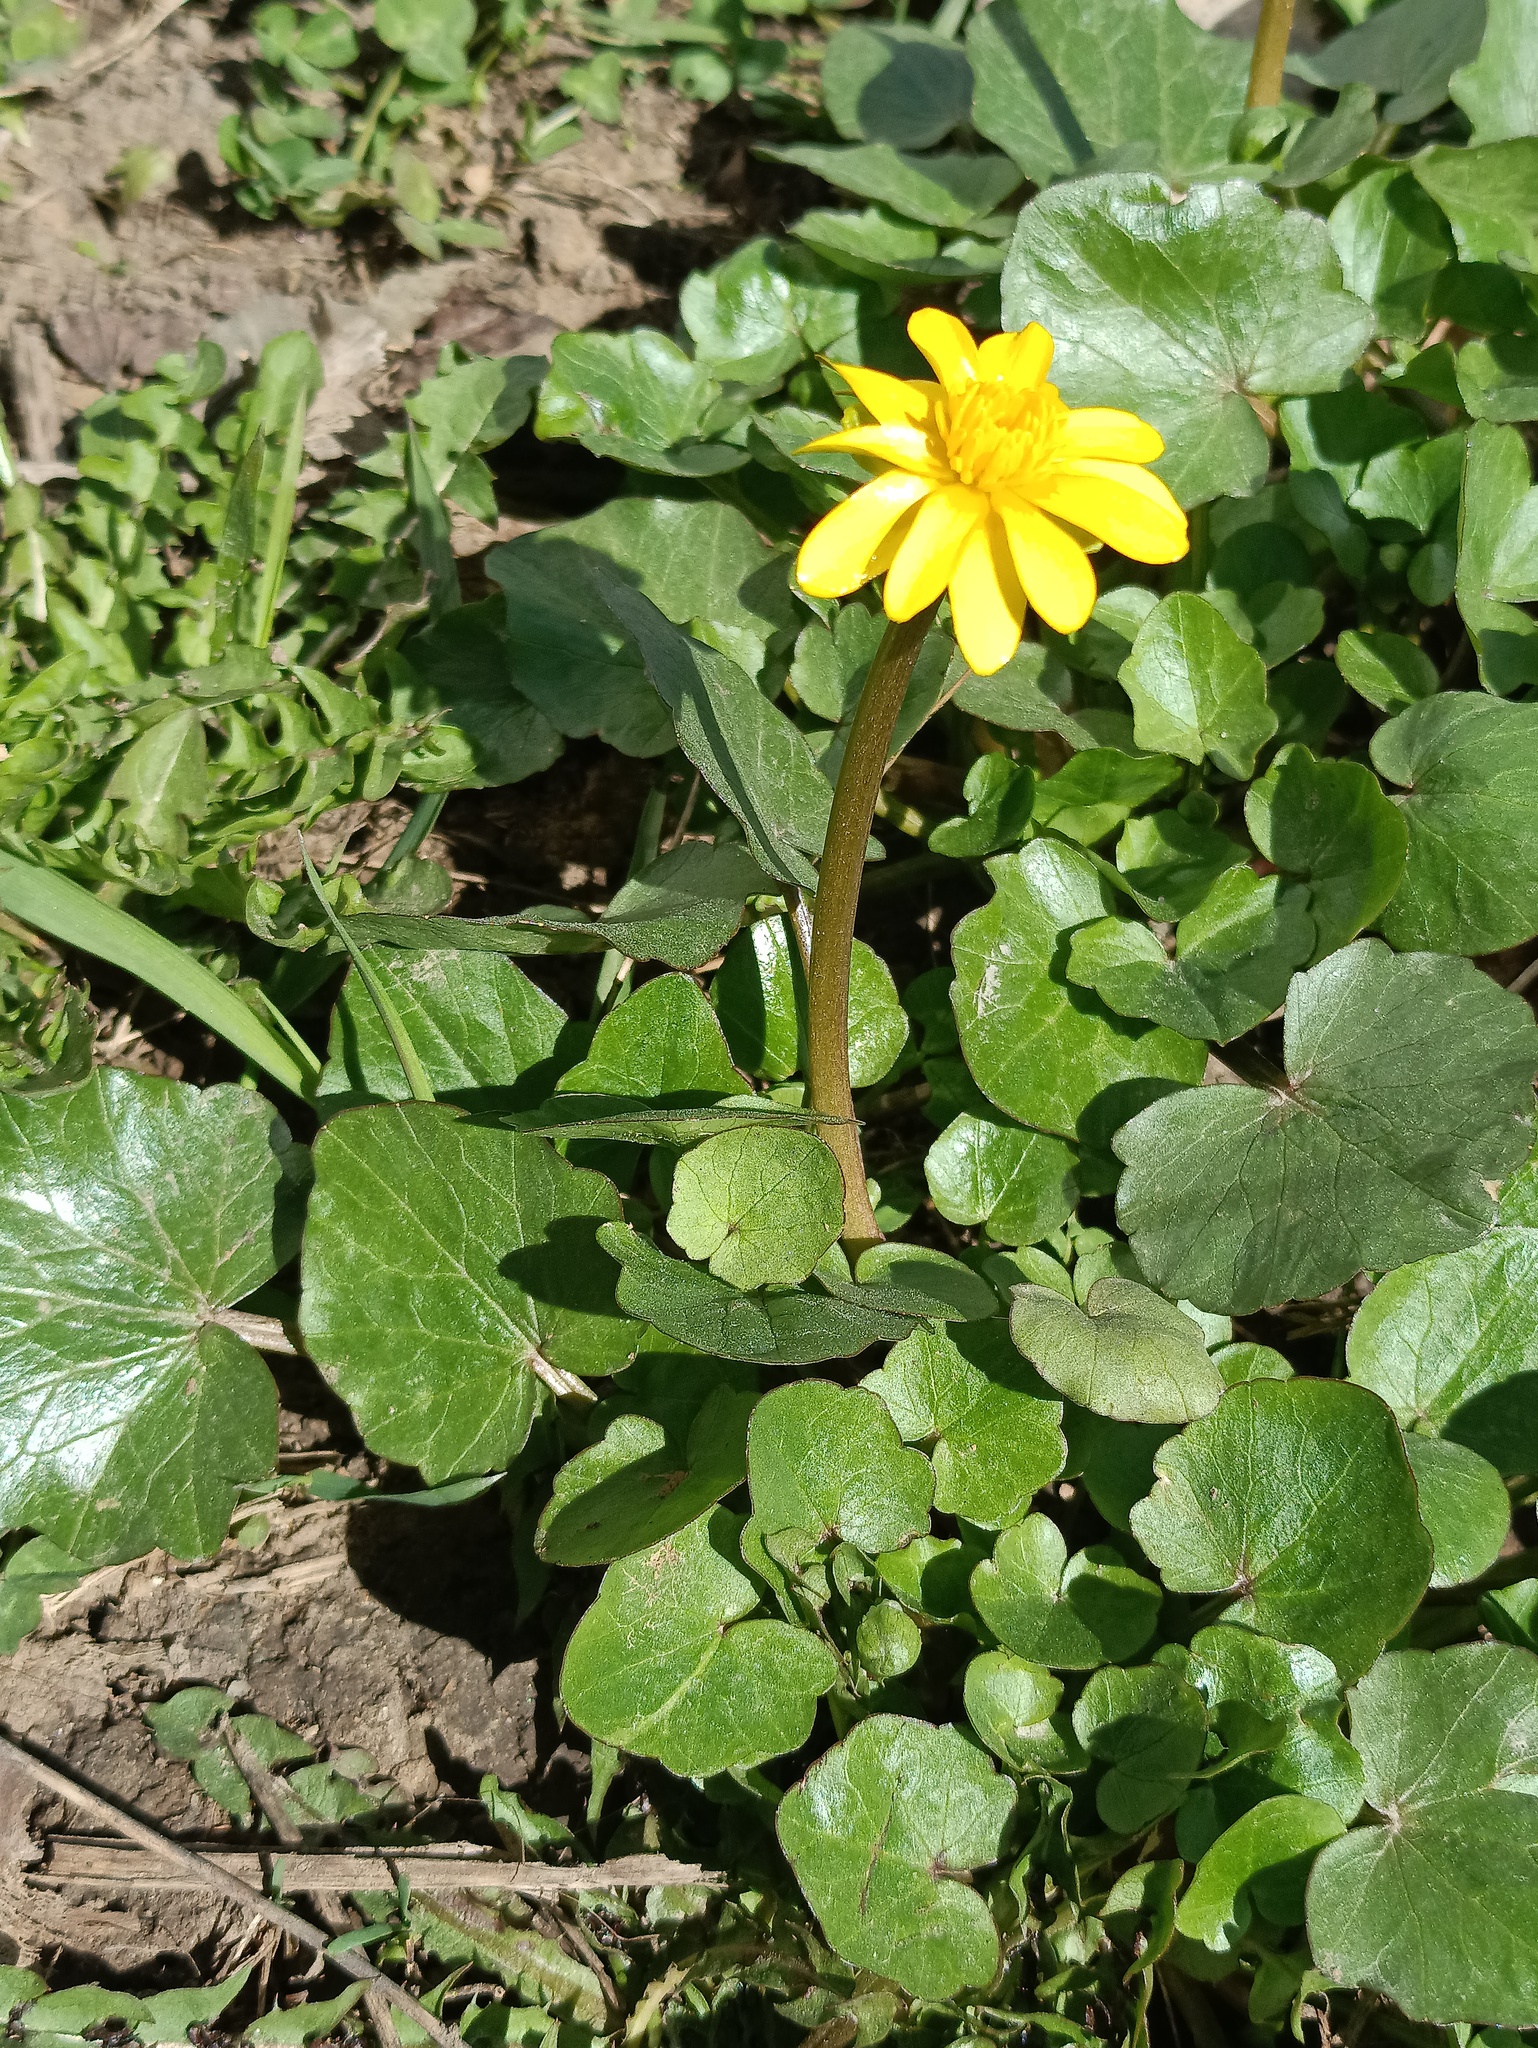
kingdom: Plantae
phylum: Tracheophyta
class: Magnoliopsida
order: Ranunculales
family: Ranunculaceae
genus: Ficaria
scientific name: Ficaria verna
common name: Lesser celandine
